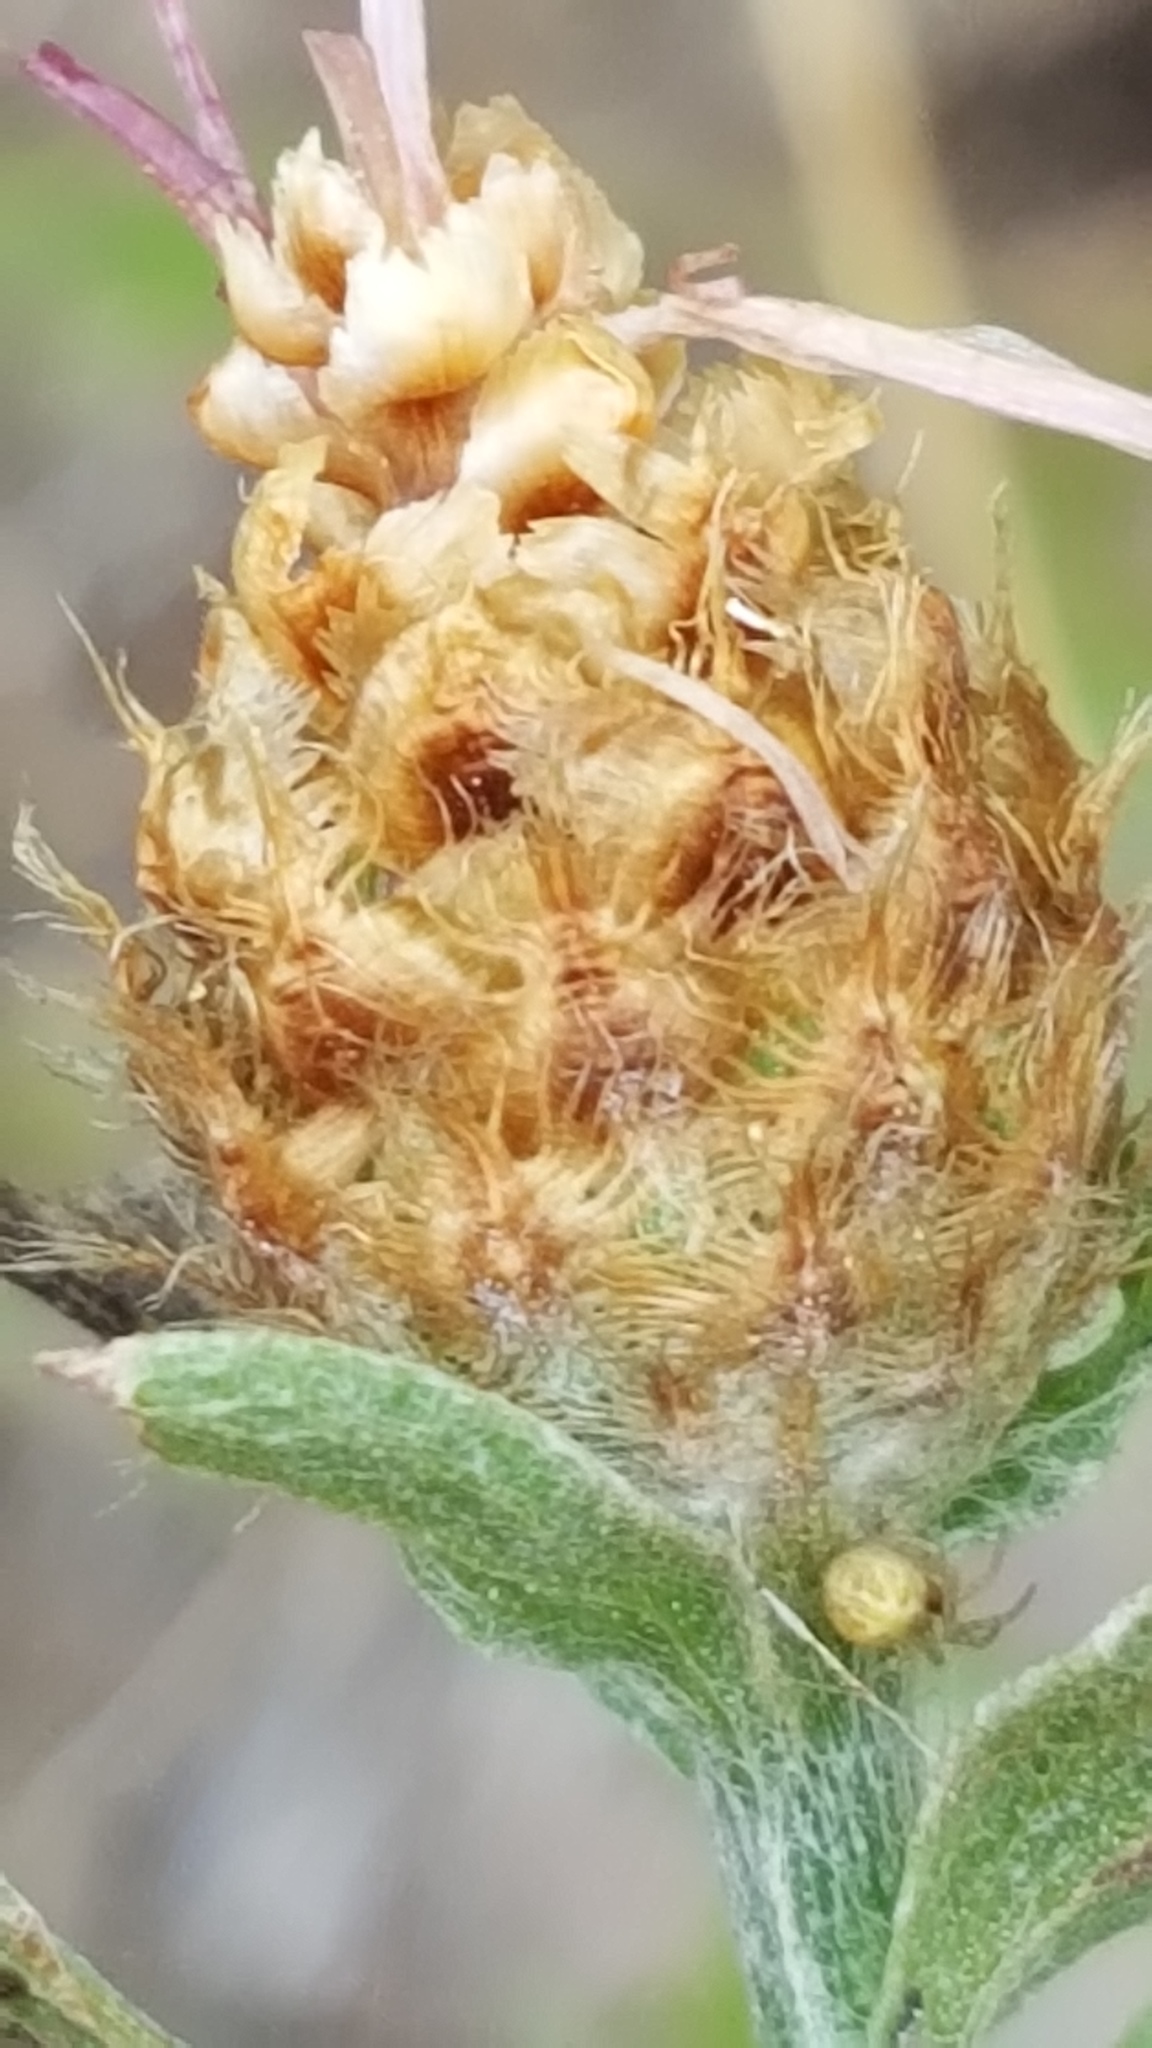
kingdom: Plantae
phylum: Tracheophyta
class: Magnoliopsida
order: Asterales
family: Asteraceae
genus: Centaurea
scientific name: Centaurea thuillieri
